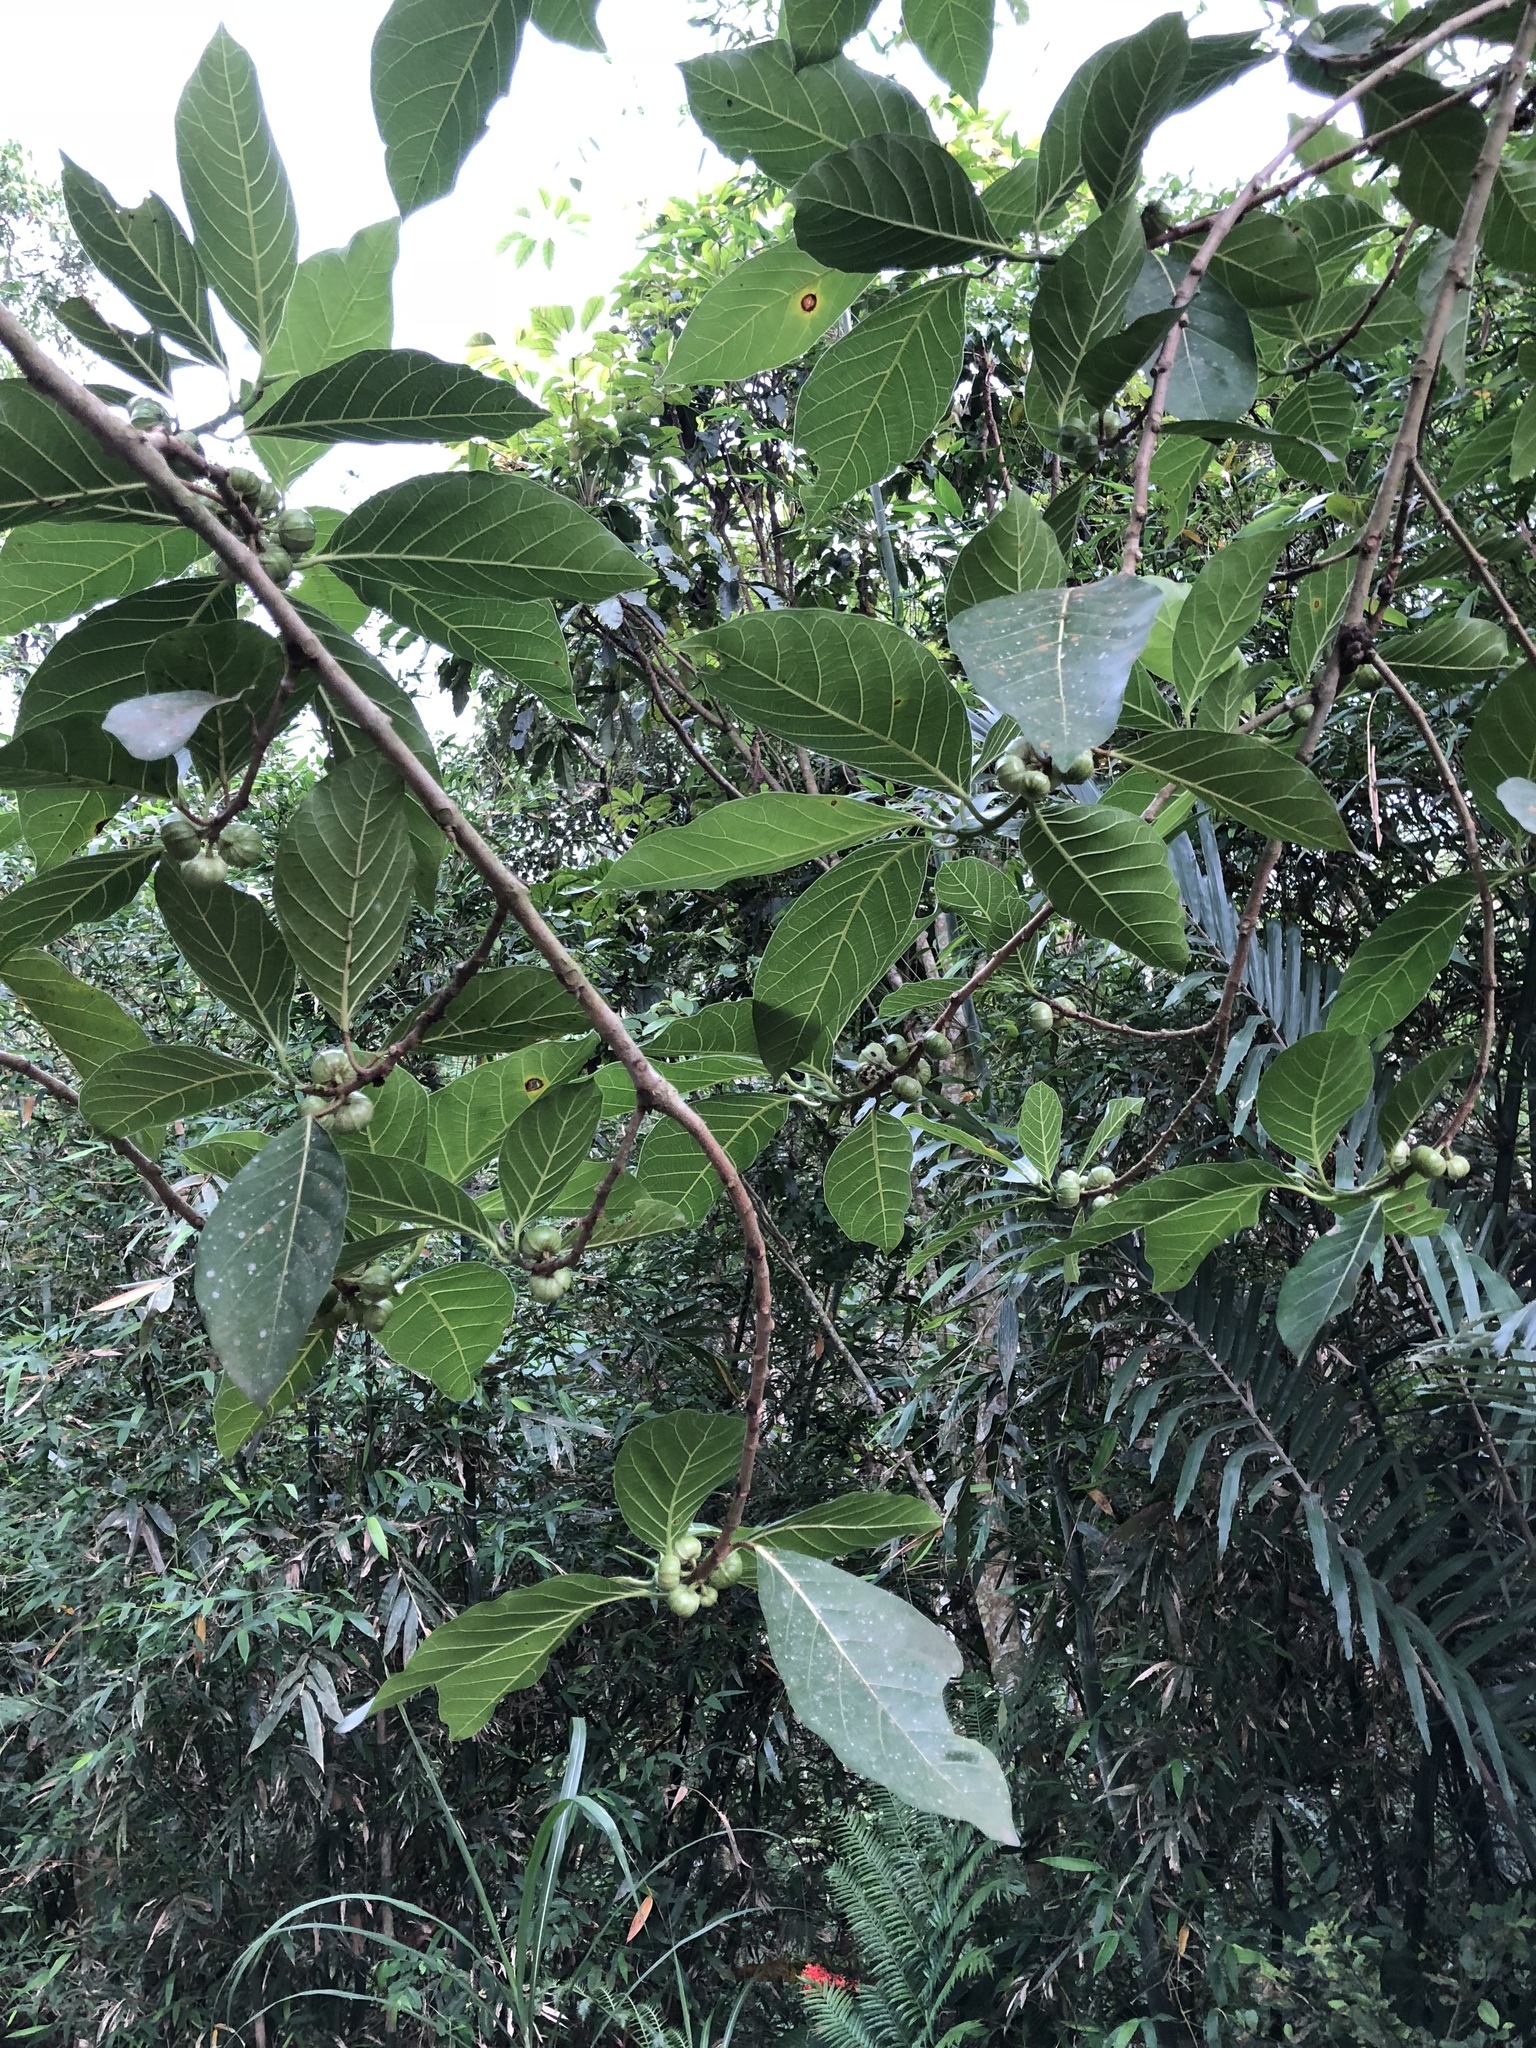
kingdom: Plantae
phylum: Tracheophyta
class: Magnoliopsida
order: Rosales
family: Moraceae
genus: Ficus
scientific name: Ficus septica
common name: Septic fig
